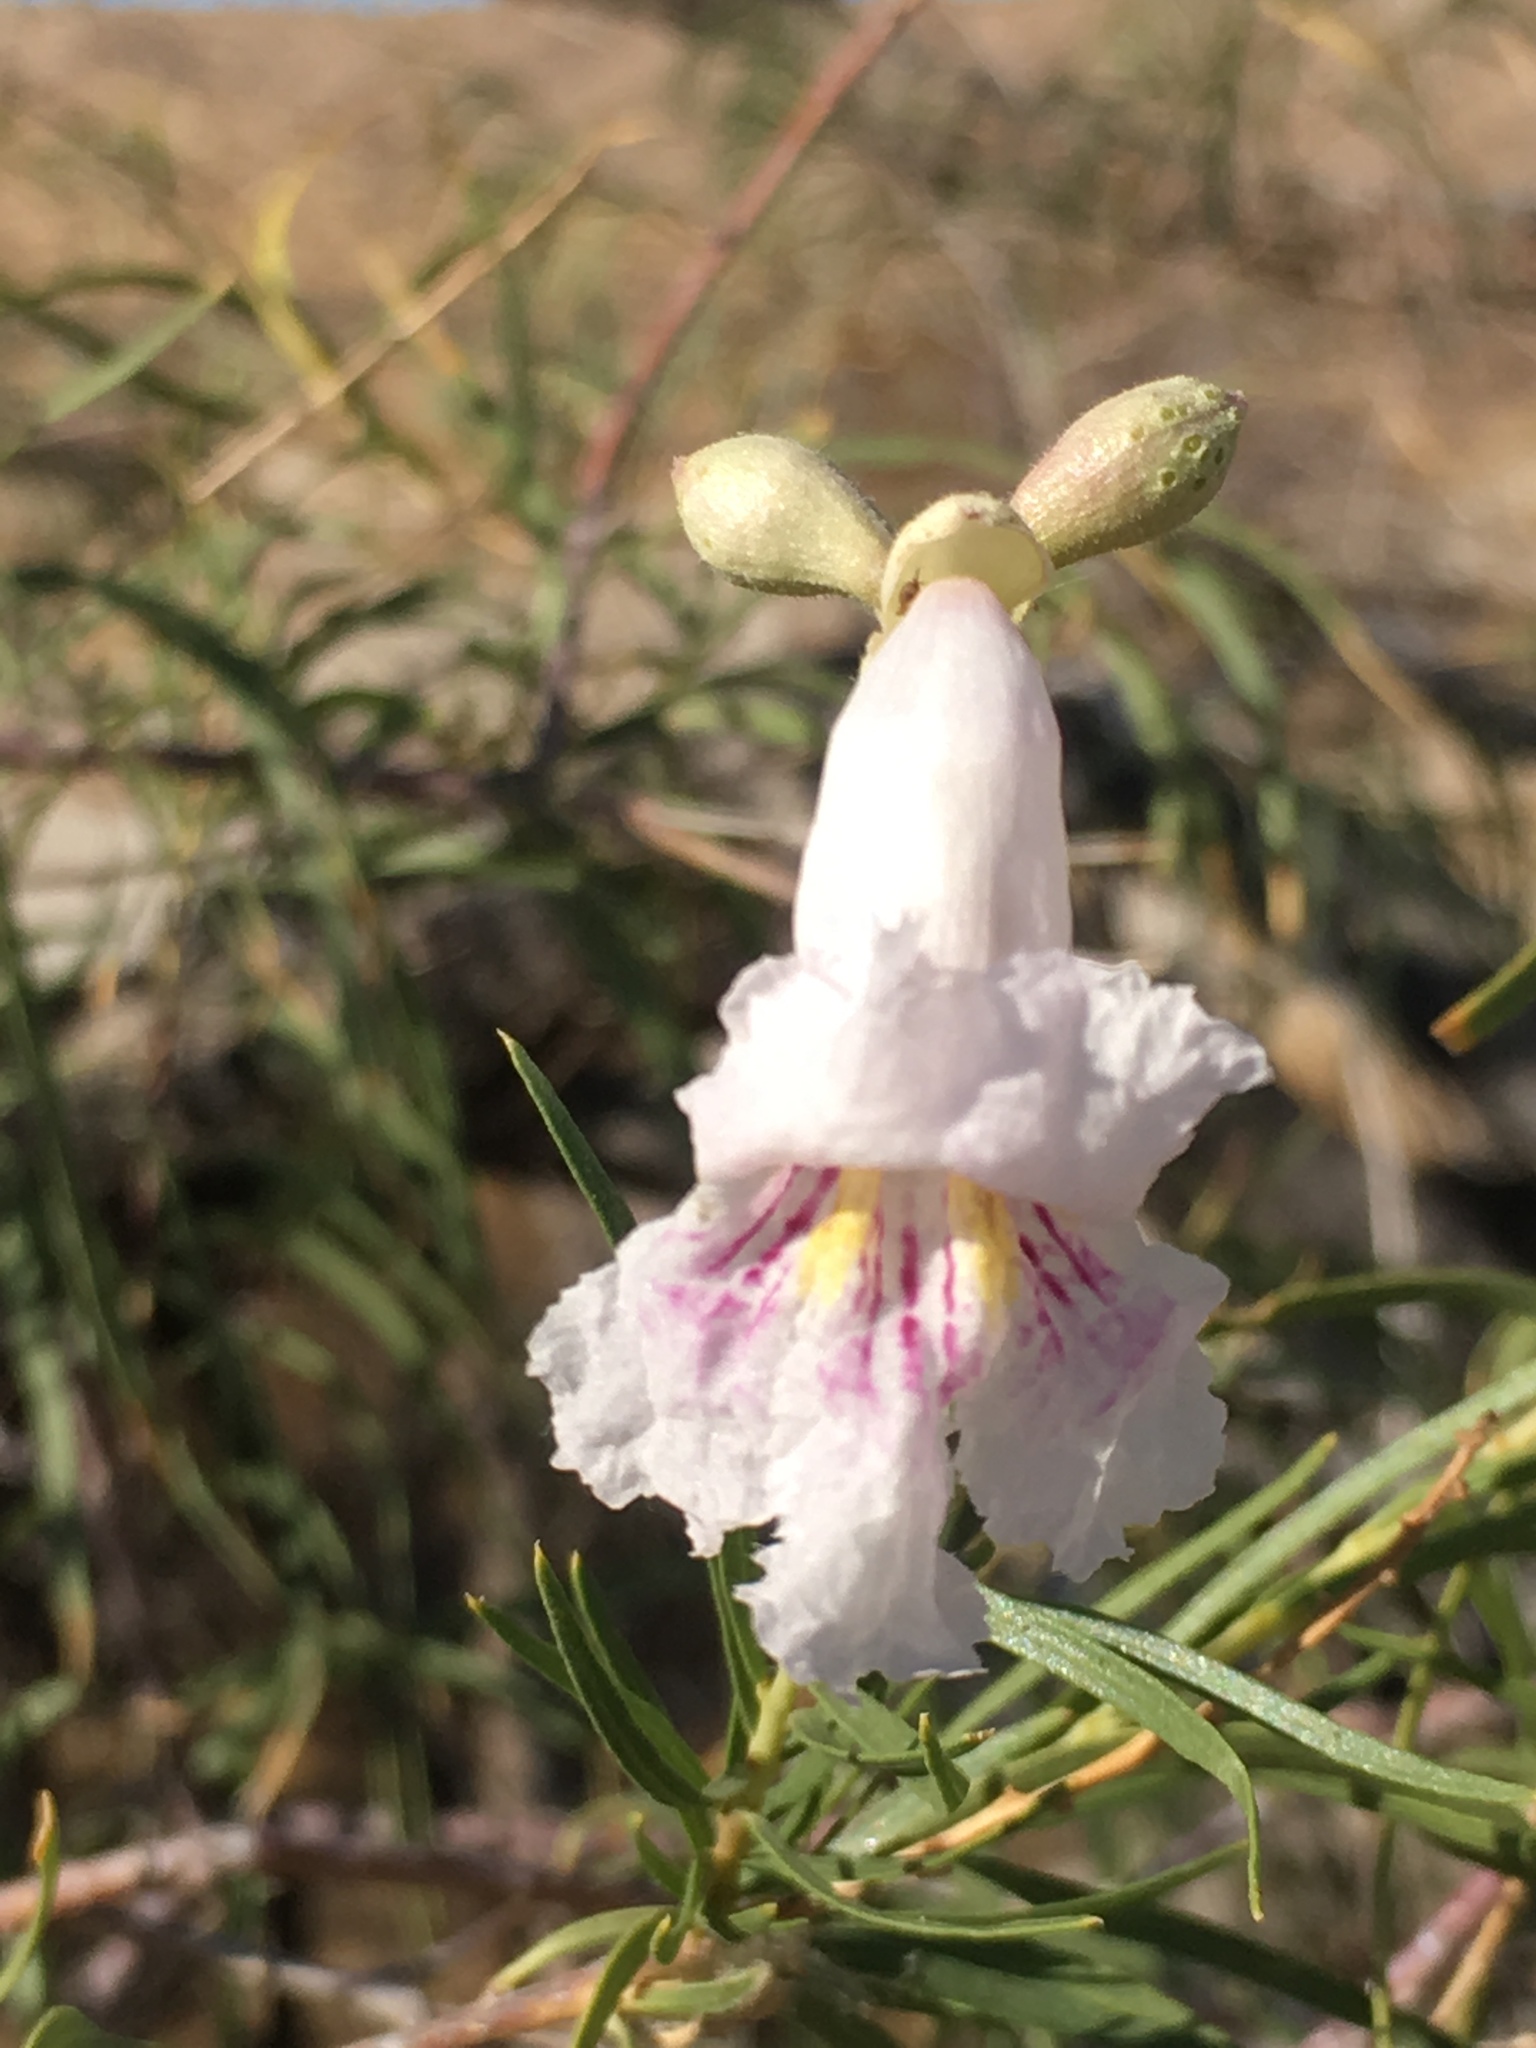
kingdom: Plantae
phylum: Tracheophyta
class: Magnoliopsida
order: Lamiales
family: Bignoniaceae
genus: Chilopsis
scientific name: Chilopsis linearis
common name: Desert-willow
